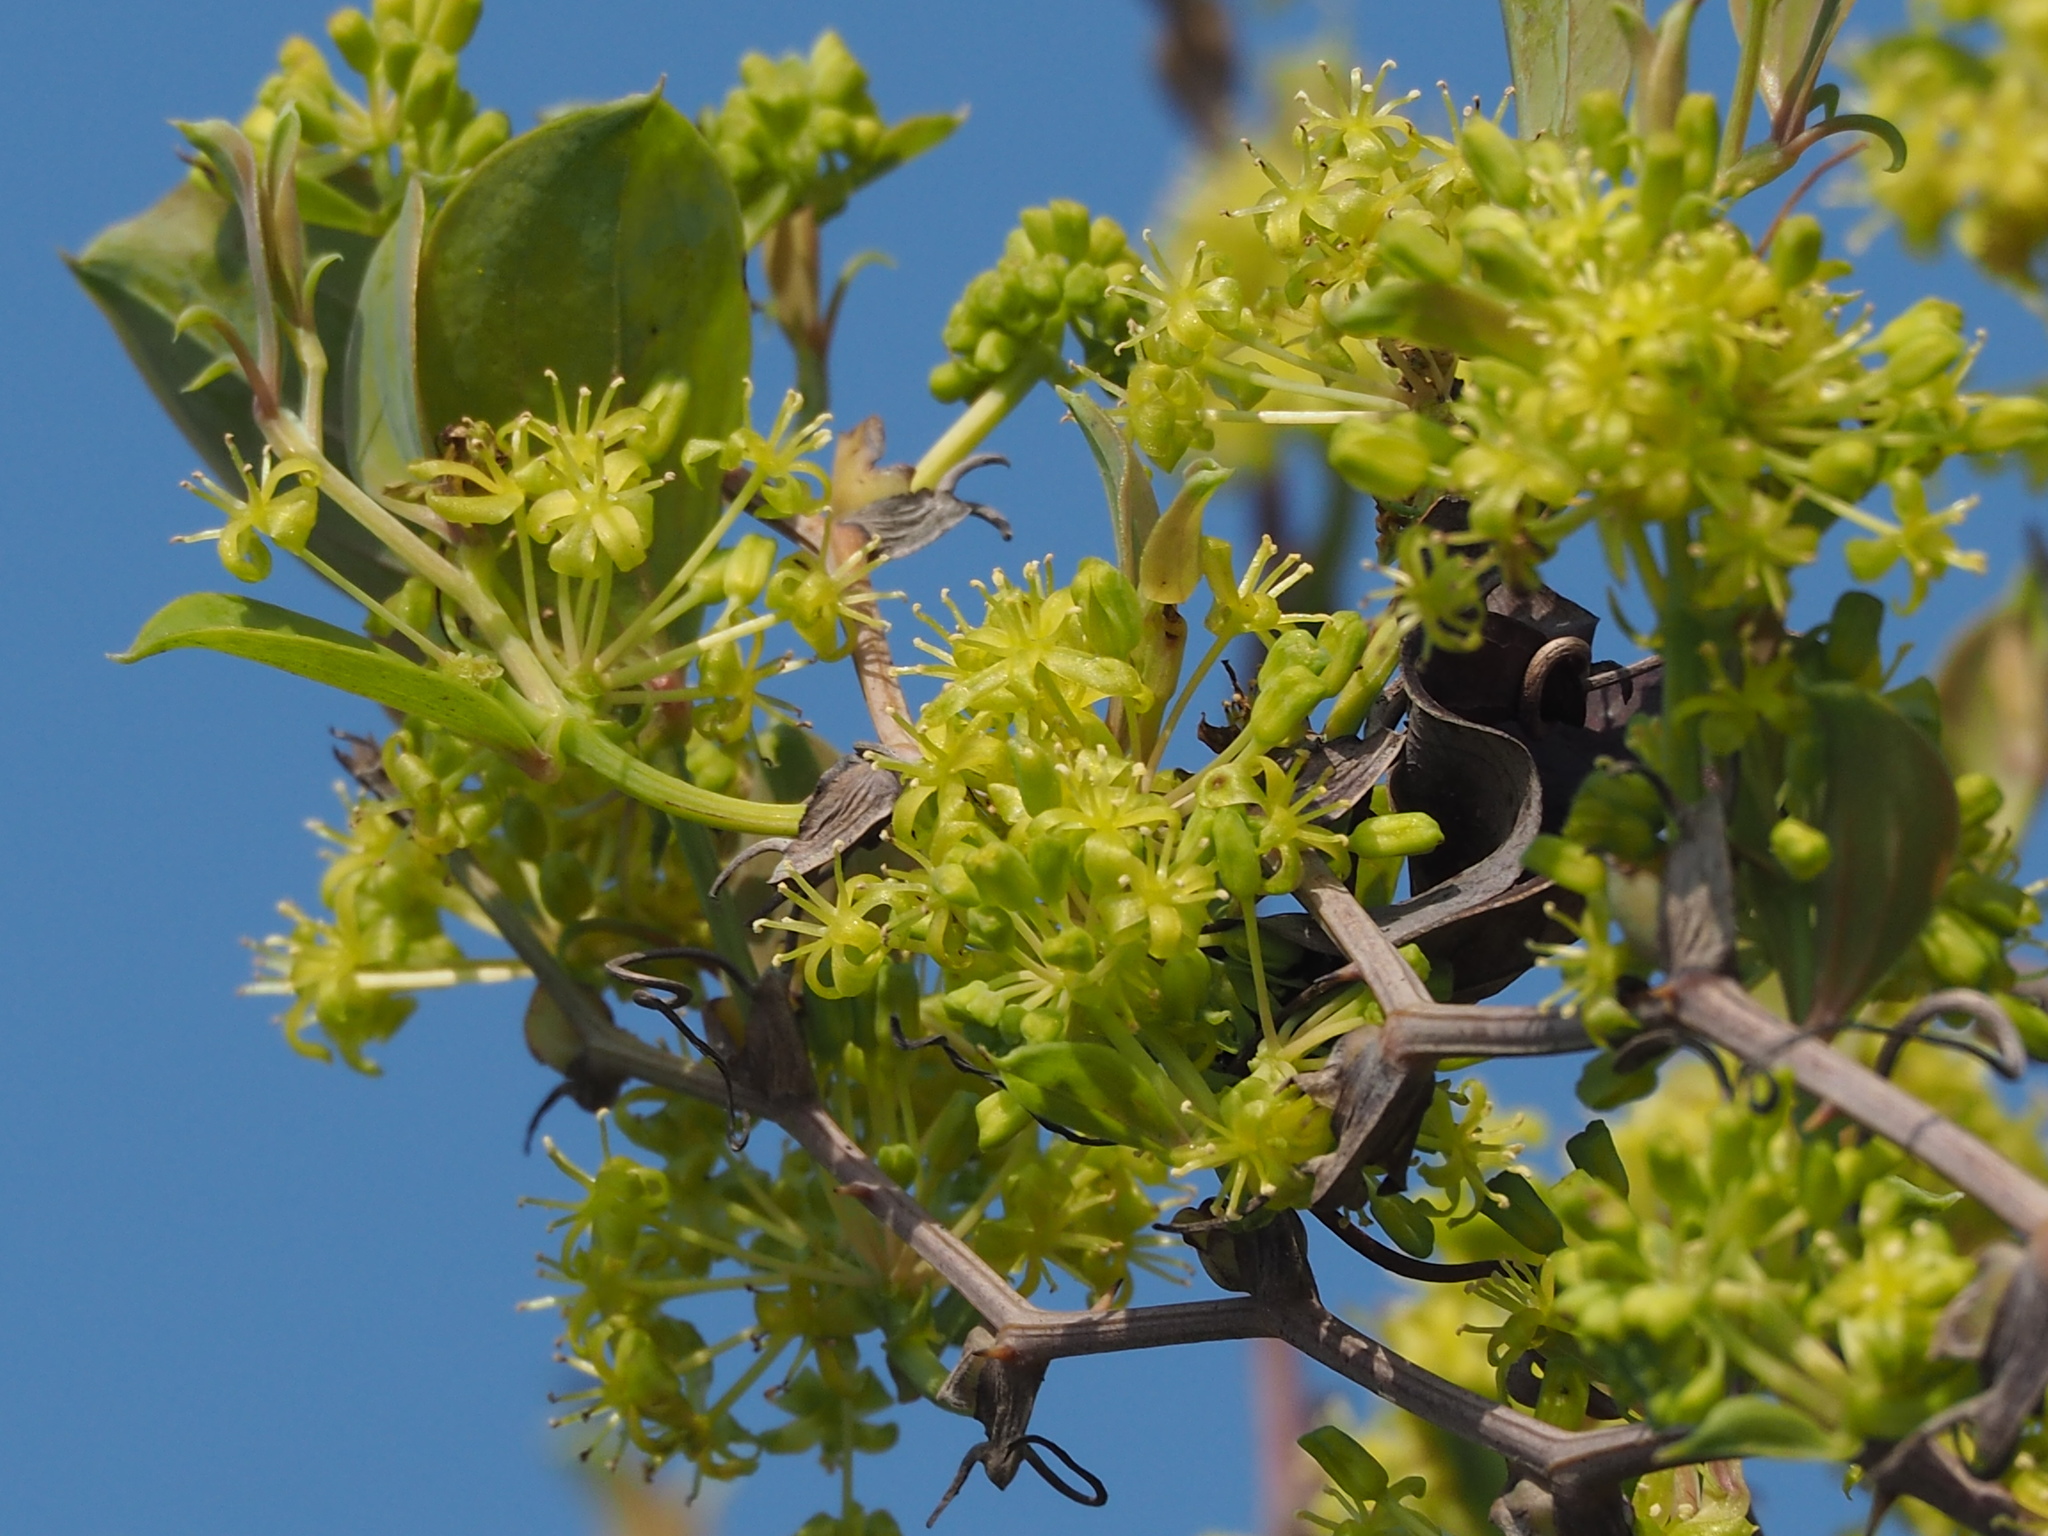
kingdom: Plantae
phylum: Tracheophyta
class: Liliopsida
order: Liliales
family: Smilacaceae
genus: Smilax
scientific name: Smilax china
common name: Chinaroot
